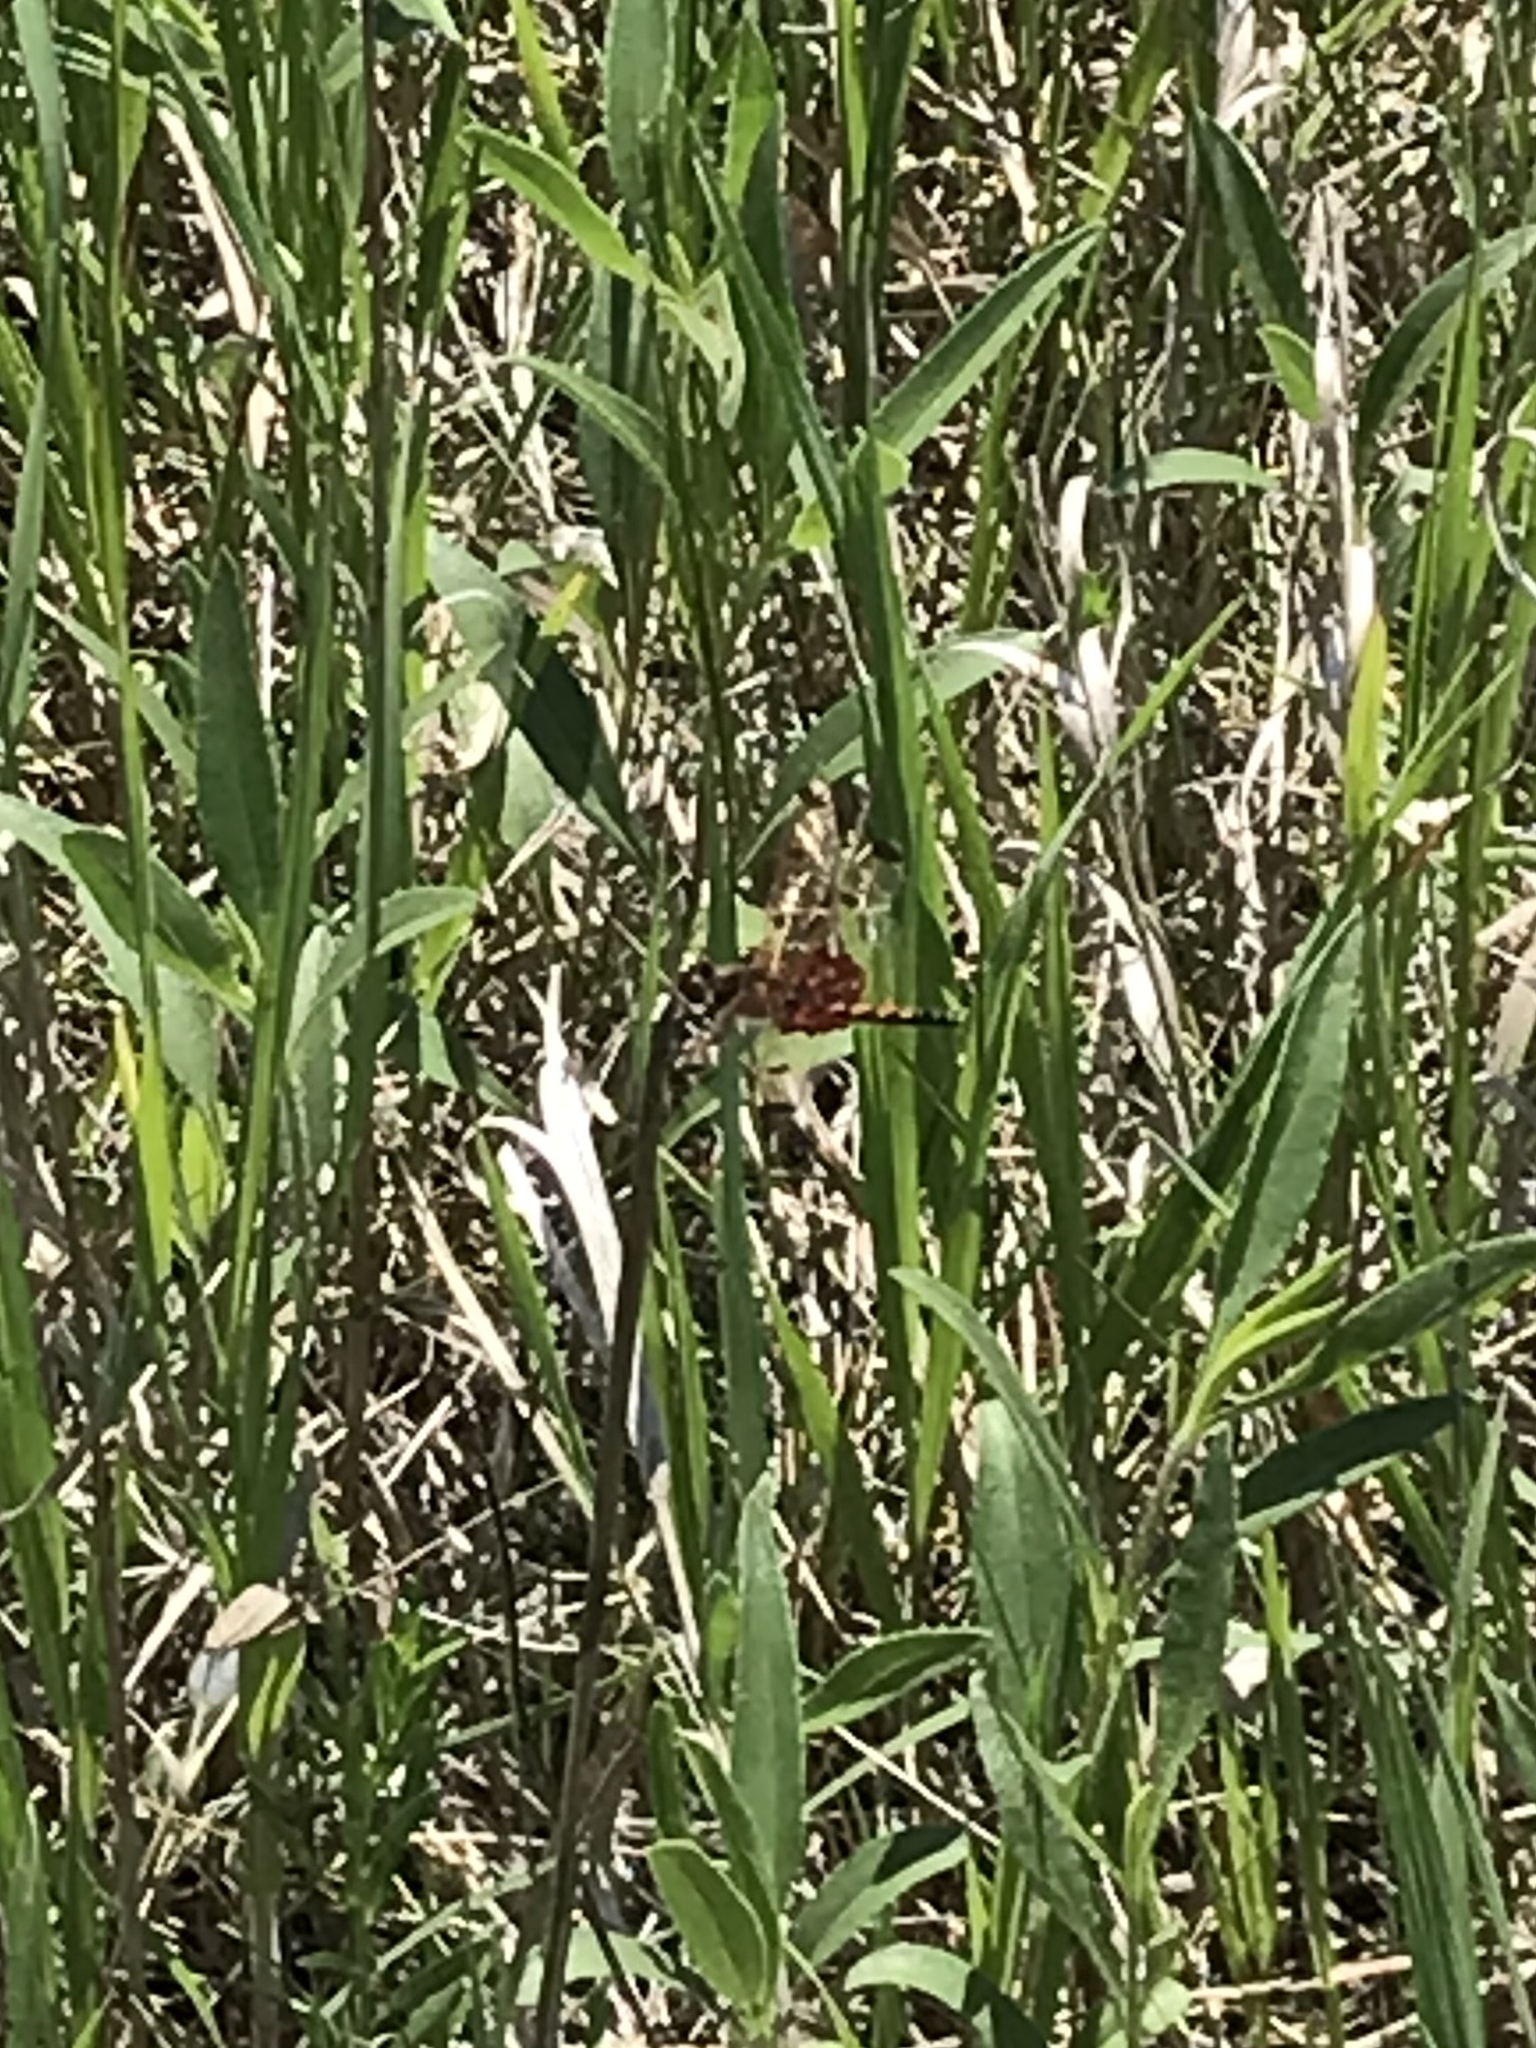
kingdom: Animalia
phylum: Arthropoda
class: Insecta
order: Odonata
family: Libellulidae
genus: Celithemis
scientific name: Celithemis elisa
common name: Calico pennant
